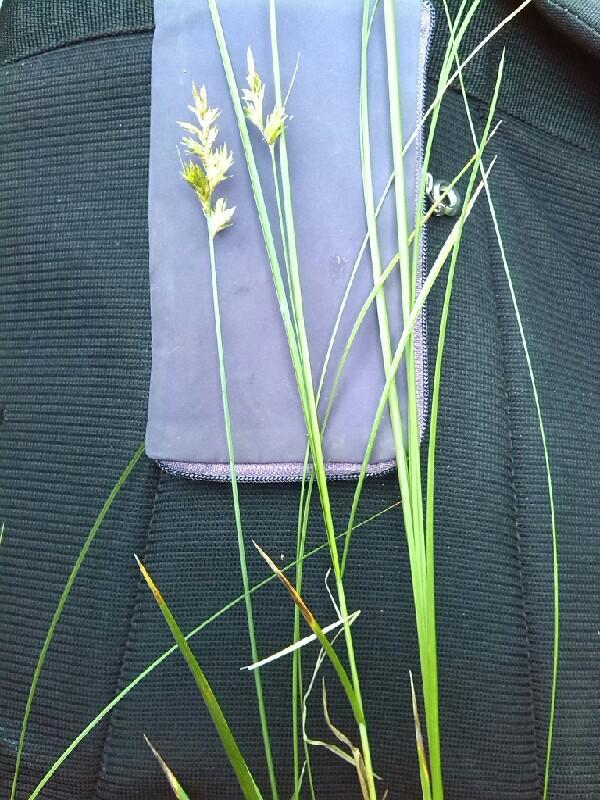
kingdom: Plantae
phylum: Tracheophyta
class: Liliopsida
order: Poales
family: Cyperaceae
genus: Carex
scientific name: Carex pseudobrizoides
